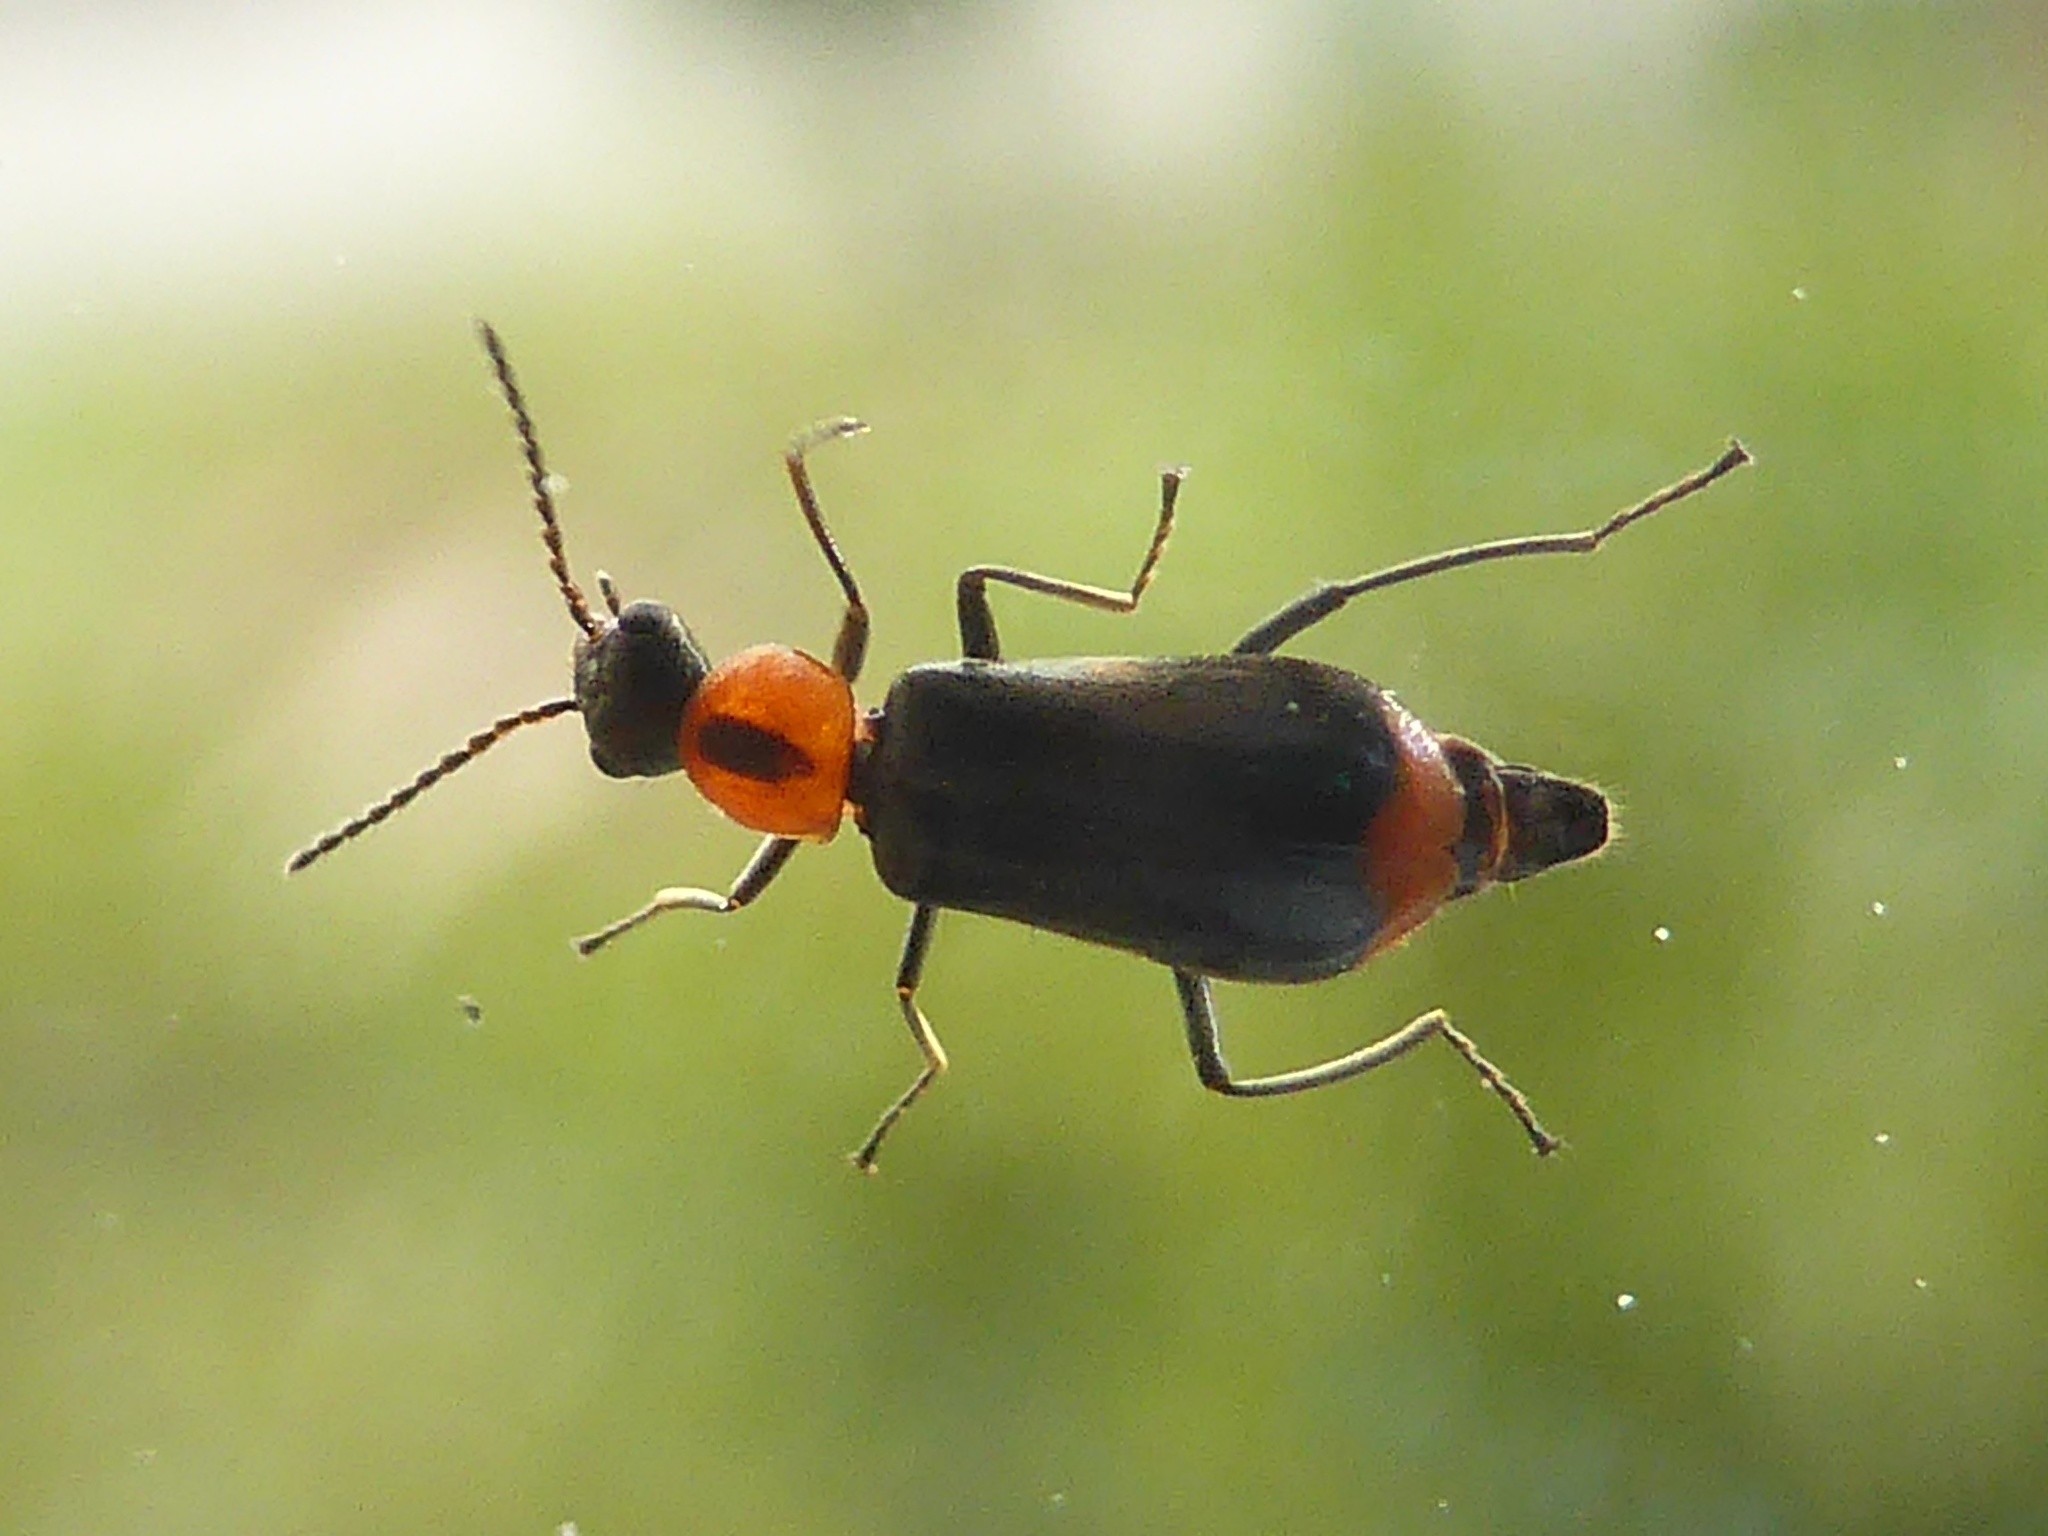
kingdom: Animalia
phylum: Arthropoda
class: Insecta
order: Coleoptera
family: Malachiidae
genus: Attalus
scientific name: Attalus minimus
